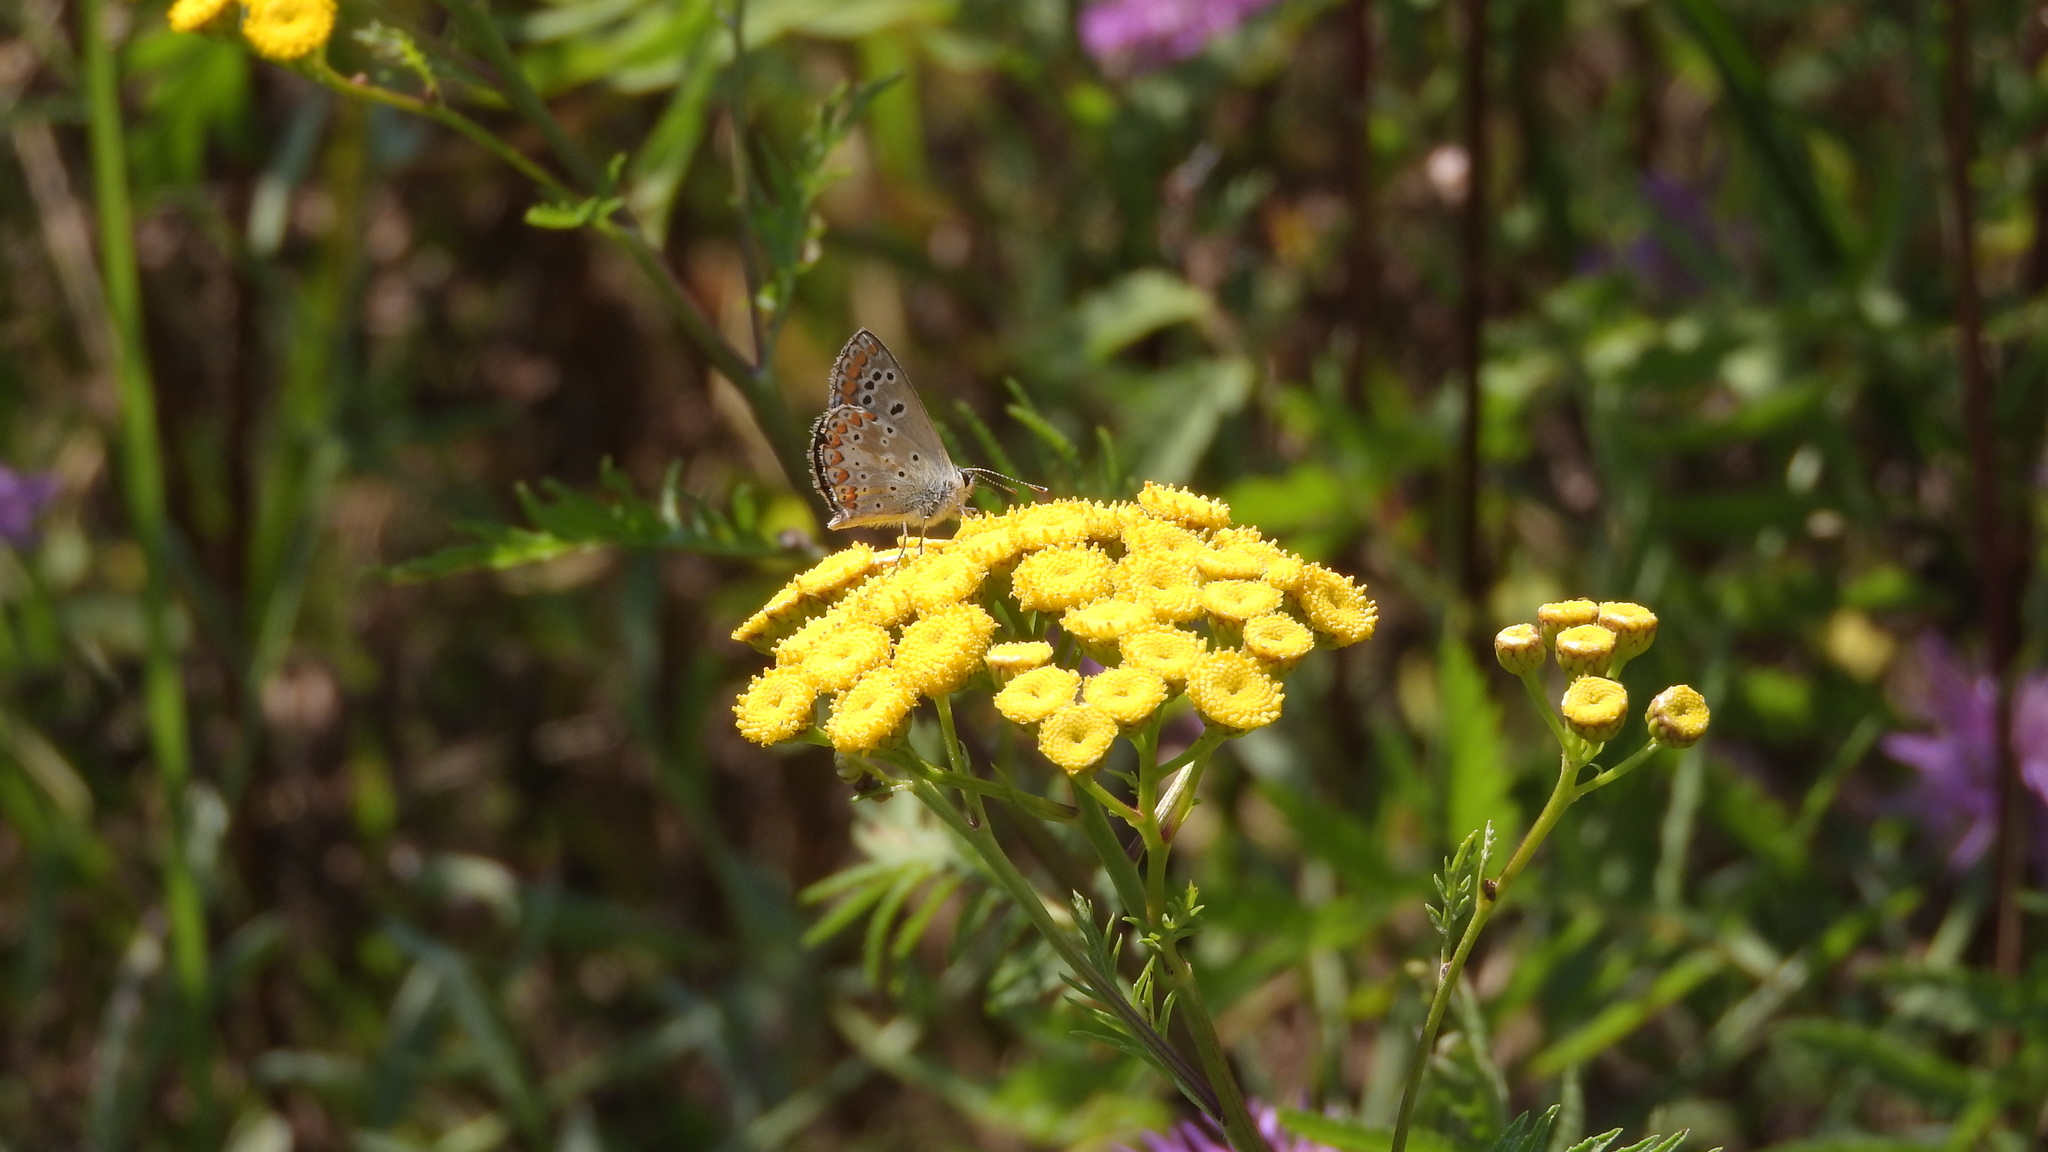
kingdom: Animalia
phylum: Arthropoda
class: Insecta
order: Lepidoptera
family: Lycaenidae
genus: Aricia
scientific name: Aricia agestis
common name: Brown argus
